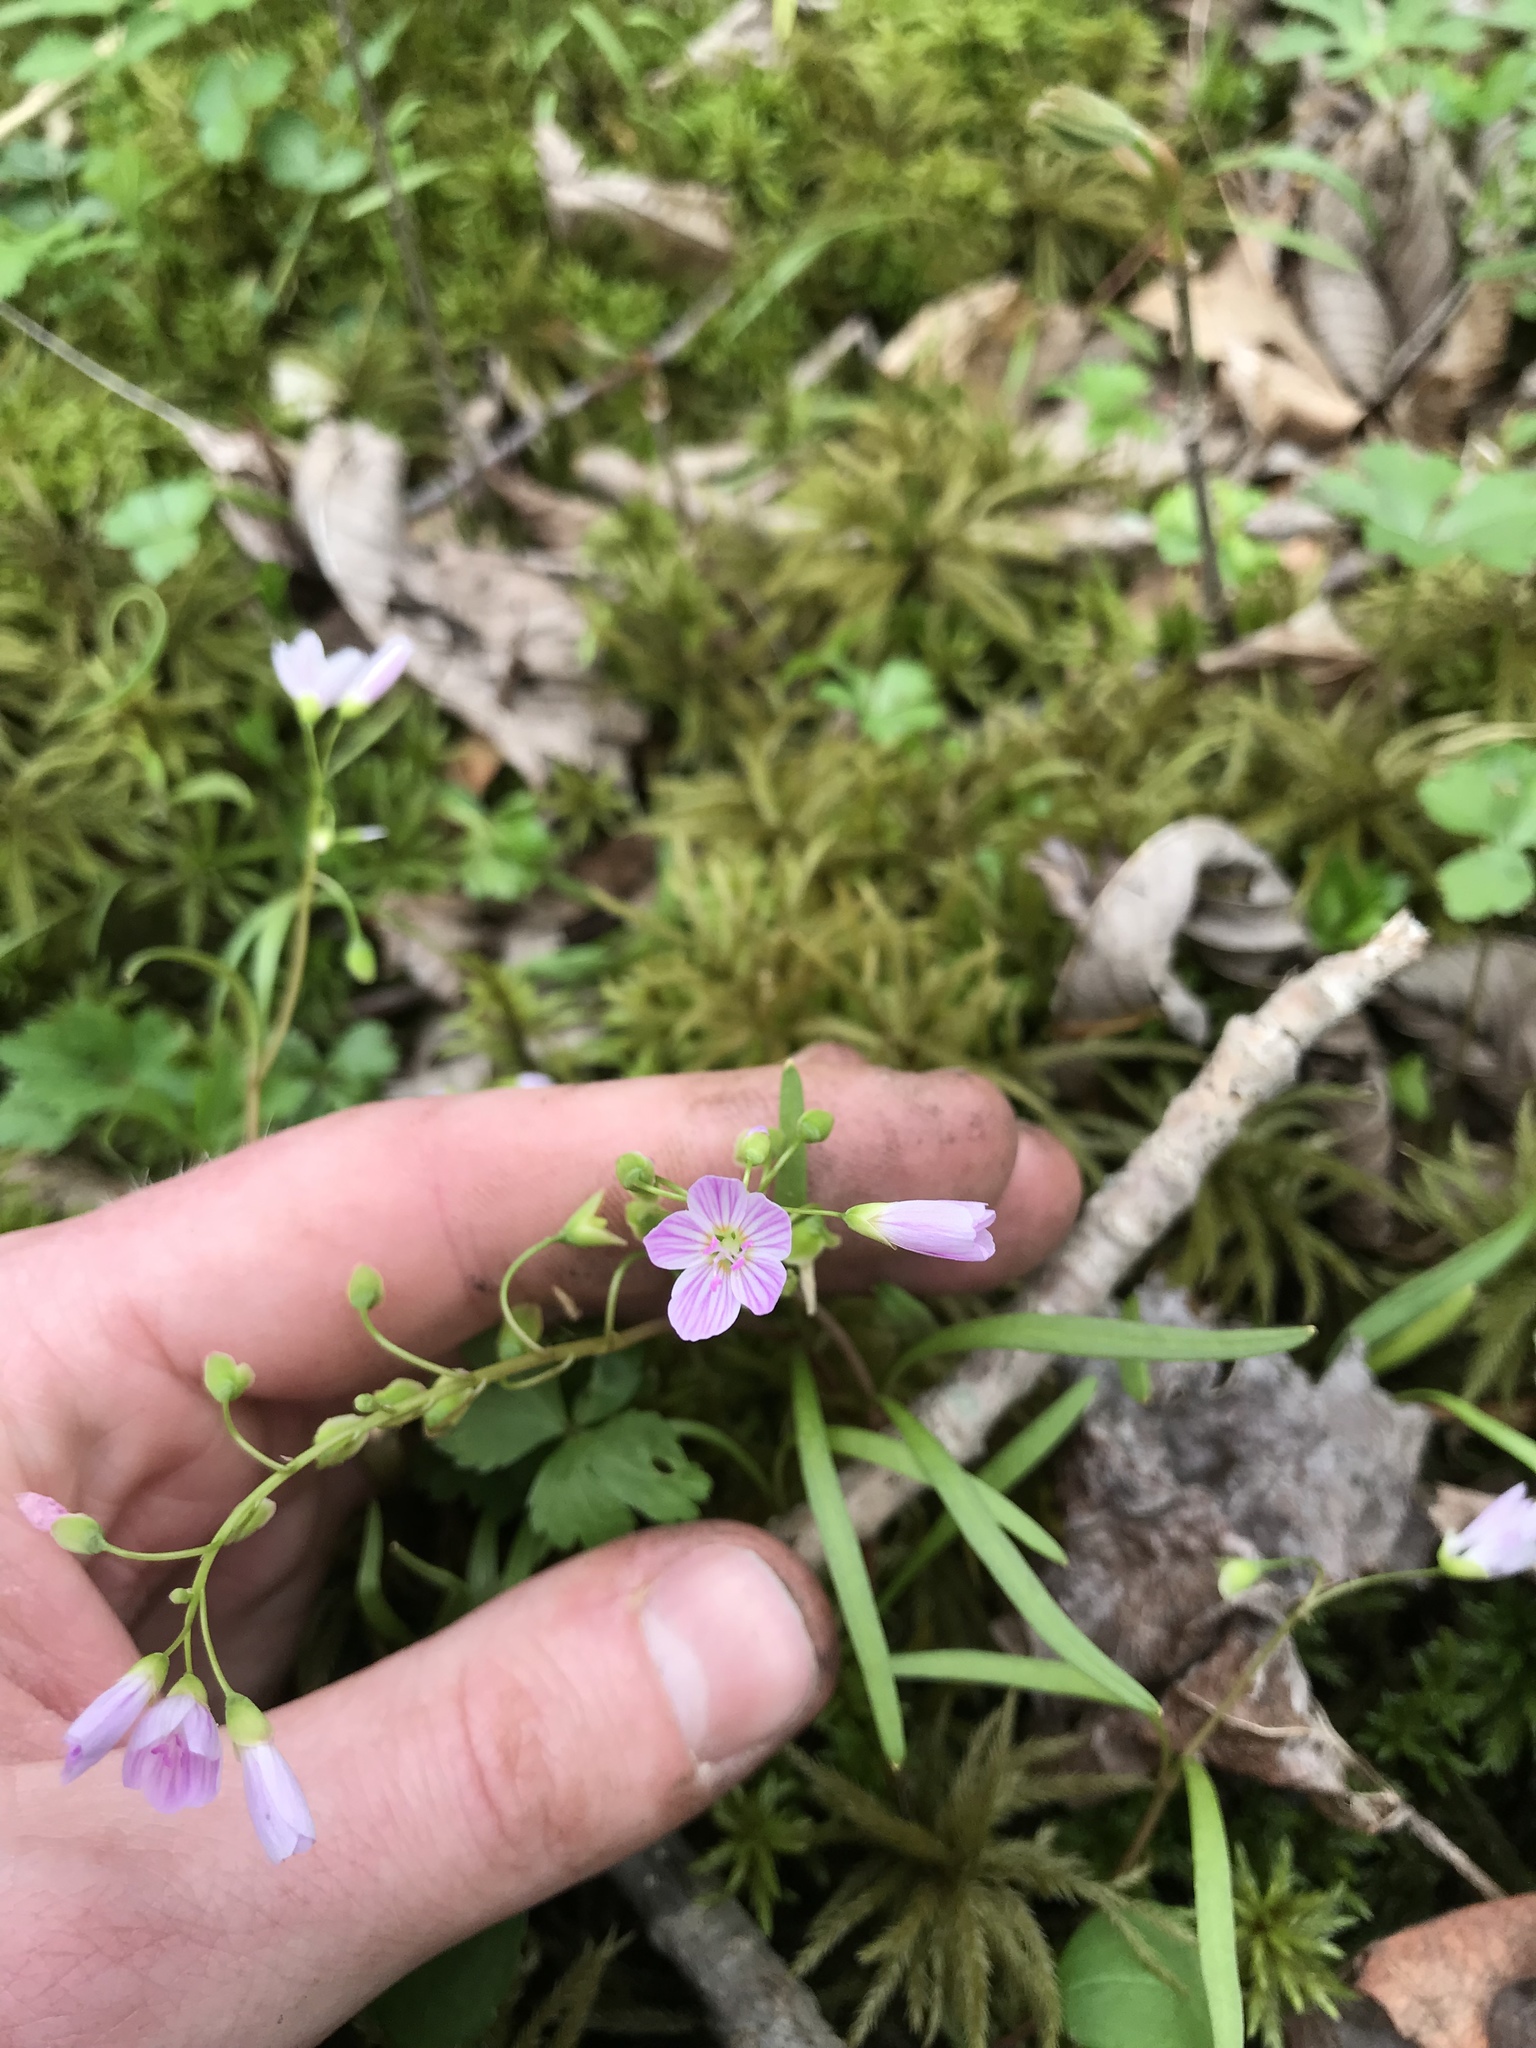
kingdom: Plantae
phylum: Tracheophyta
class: Magnoliopsida
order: Caryophyllales
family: Montiaceae
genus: Claytonia
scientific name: Claytonia virginica
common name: Virginia springbeauty
